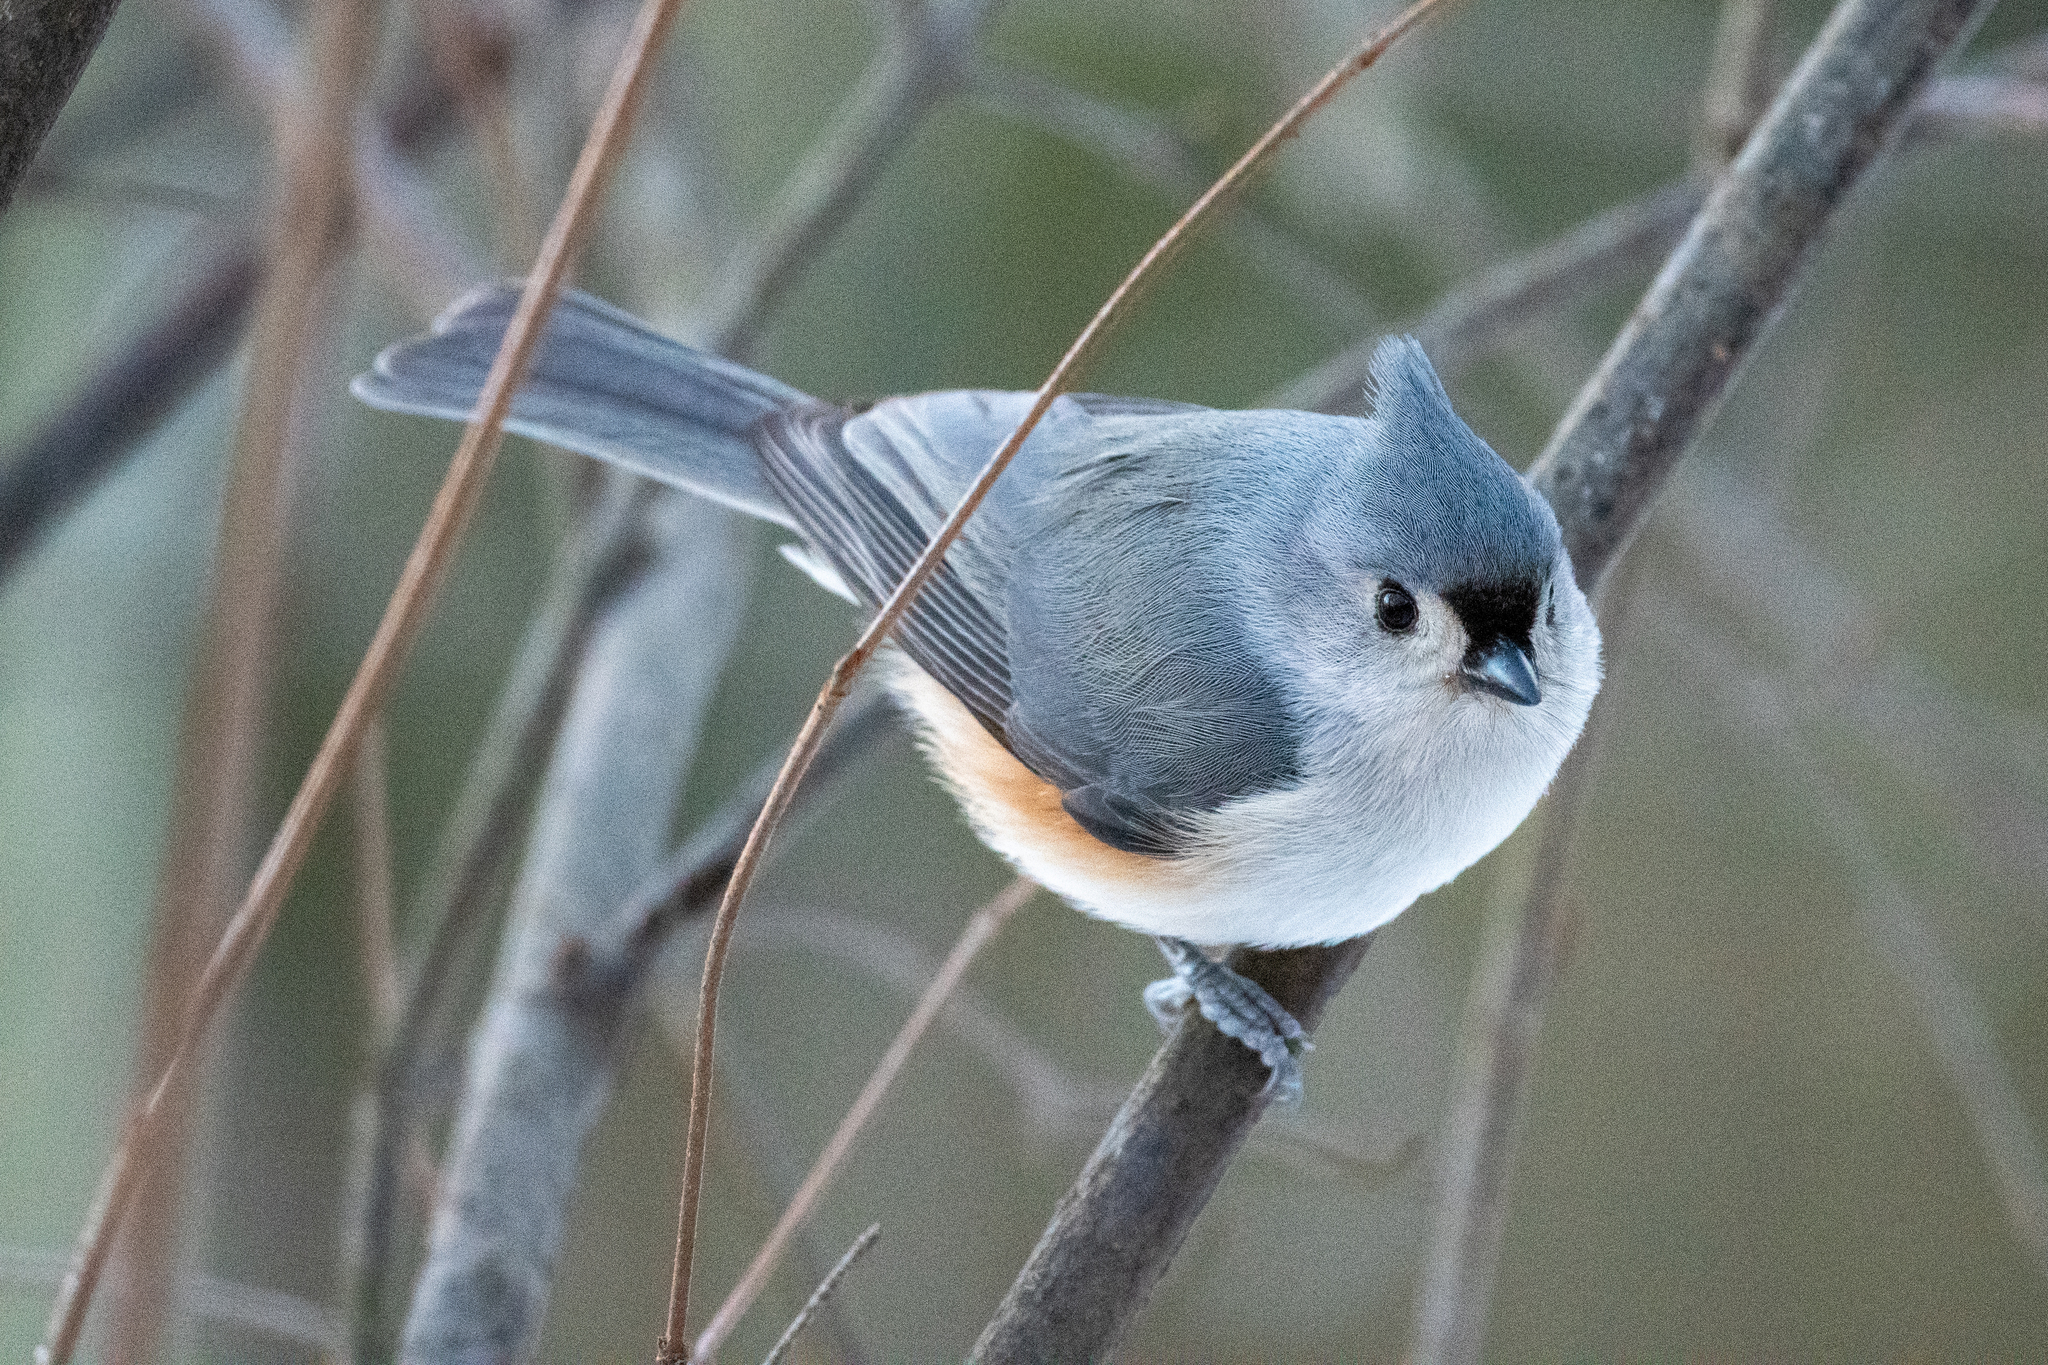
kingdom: Animalia
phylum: Chordata
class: Aves
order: Passeriformes
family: Paridae
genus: Baeolophus
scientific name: Baeolophus bicolor
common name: Tufted titmouse
